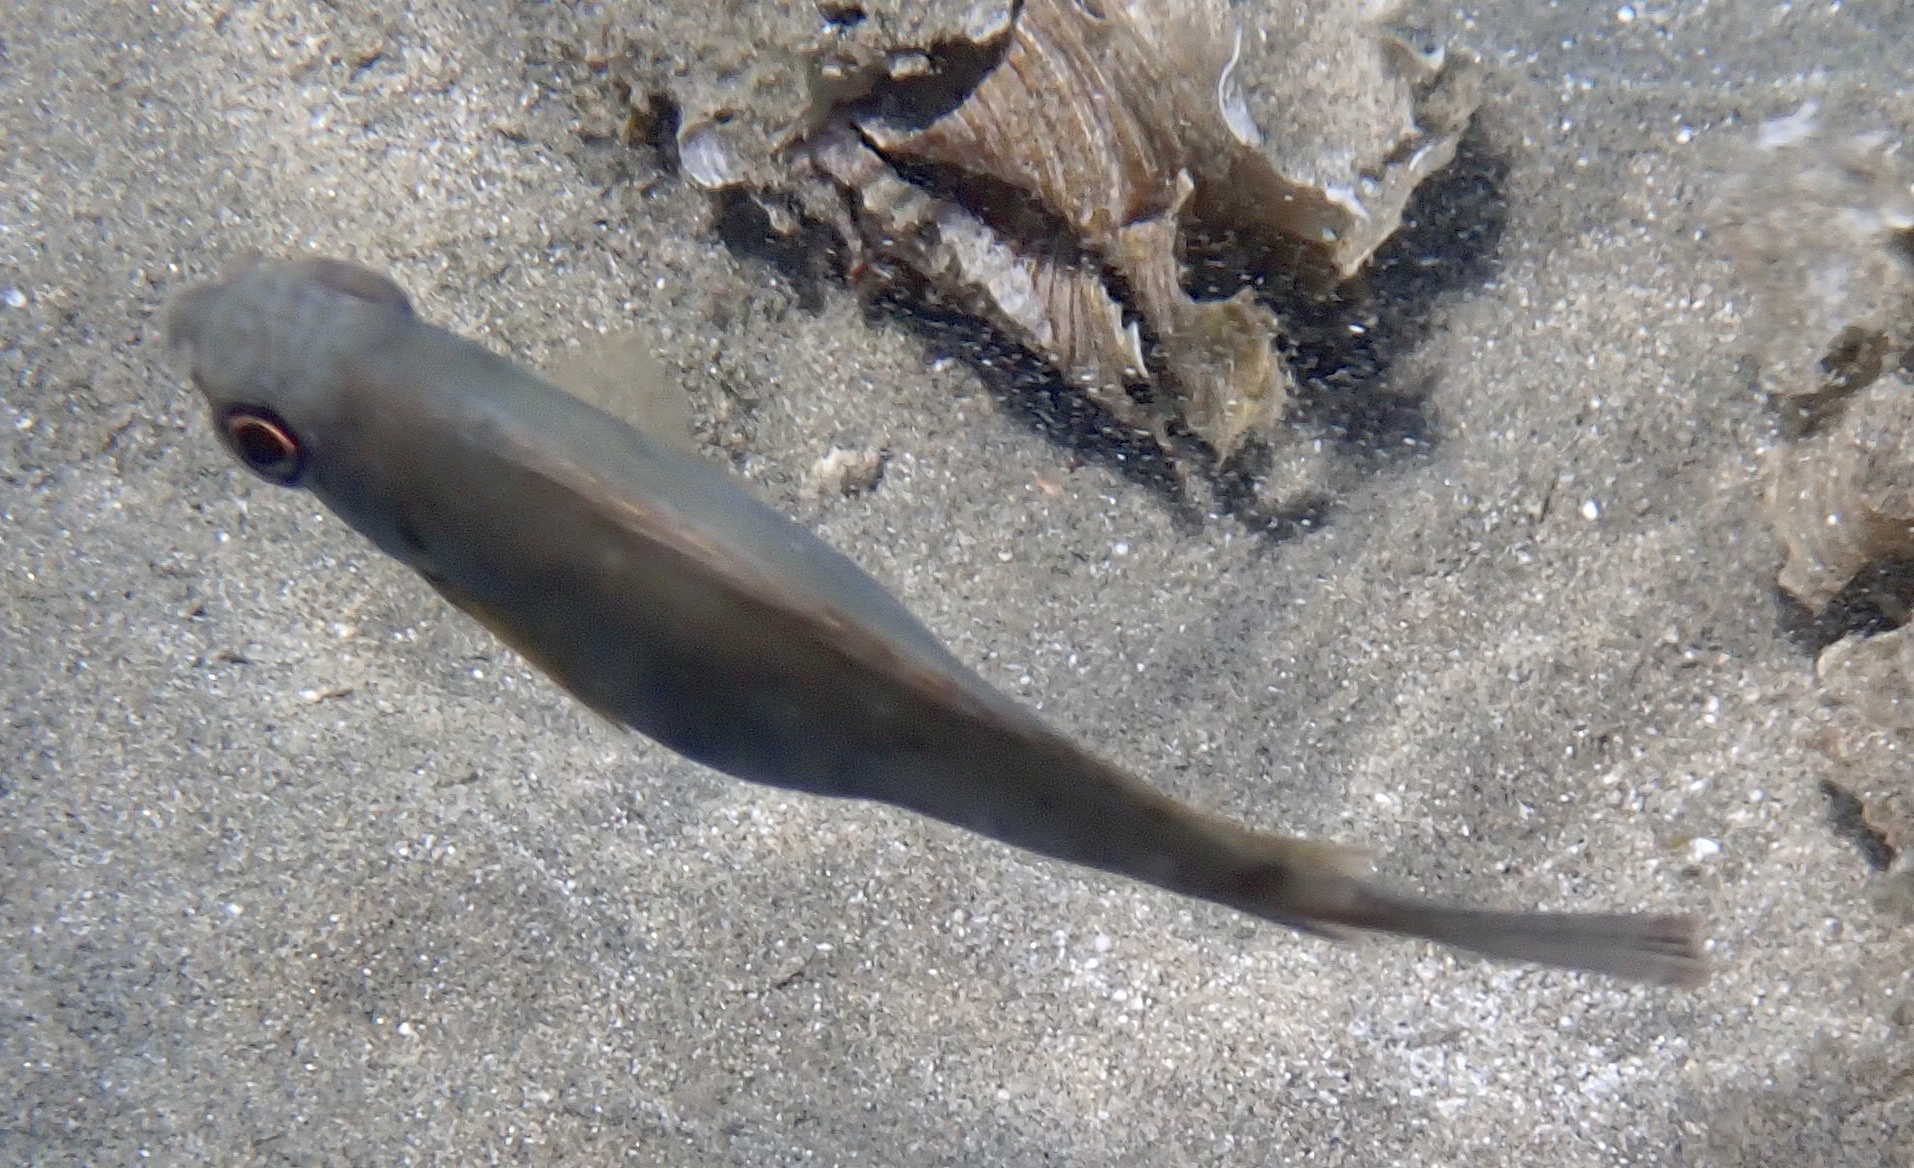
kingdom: Animalia
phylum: Chordata
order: Perciformes
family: Siganidae
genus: Siganus
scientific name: Siganus luridus
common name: Dusky spinefoot
